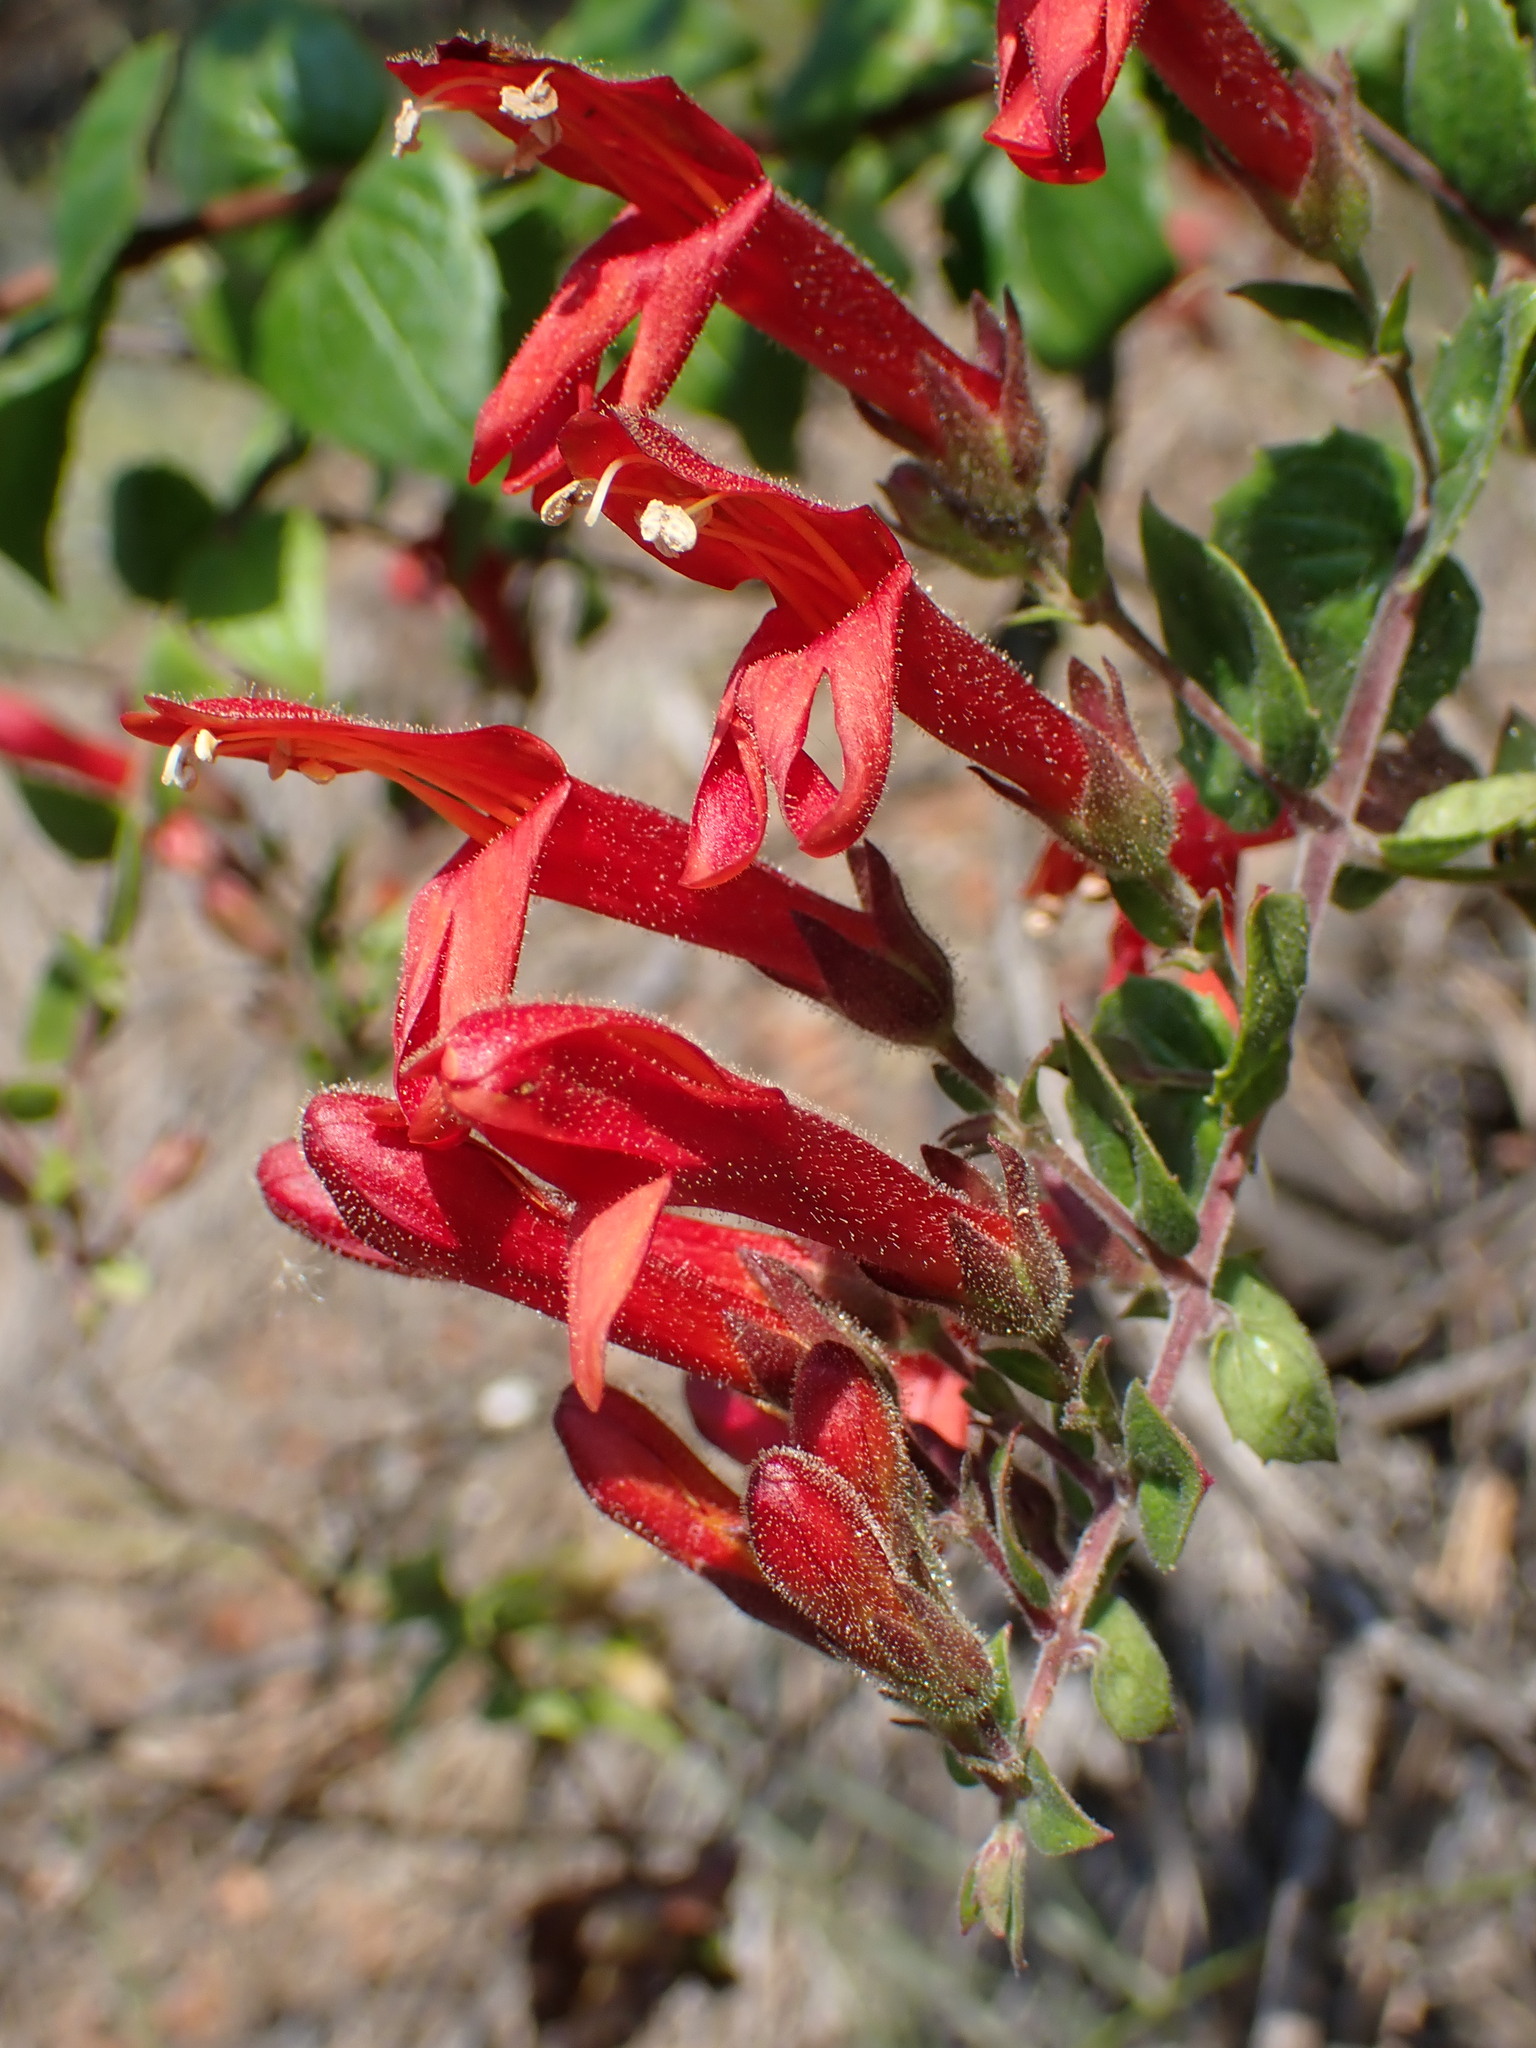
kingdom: Plantae
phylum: Tracheophyta
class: Magnoliopsida
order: Lamiales
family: Plantaginaceae
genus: Keckiella
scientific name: Keckiella cordifolia
